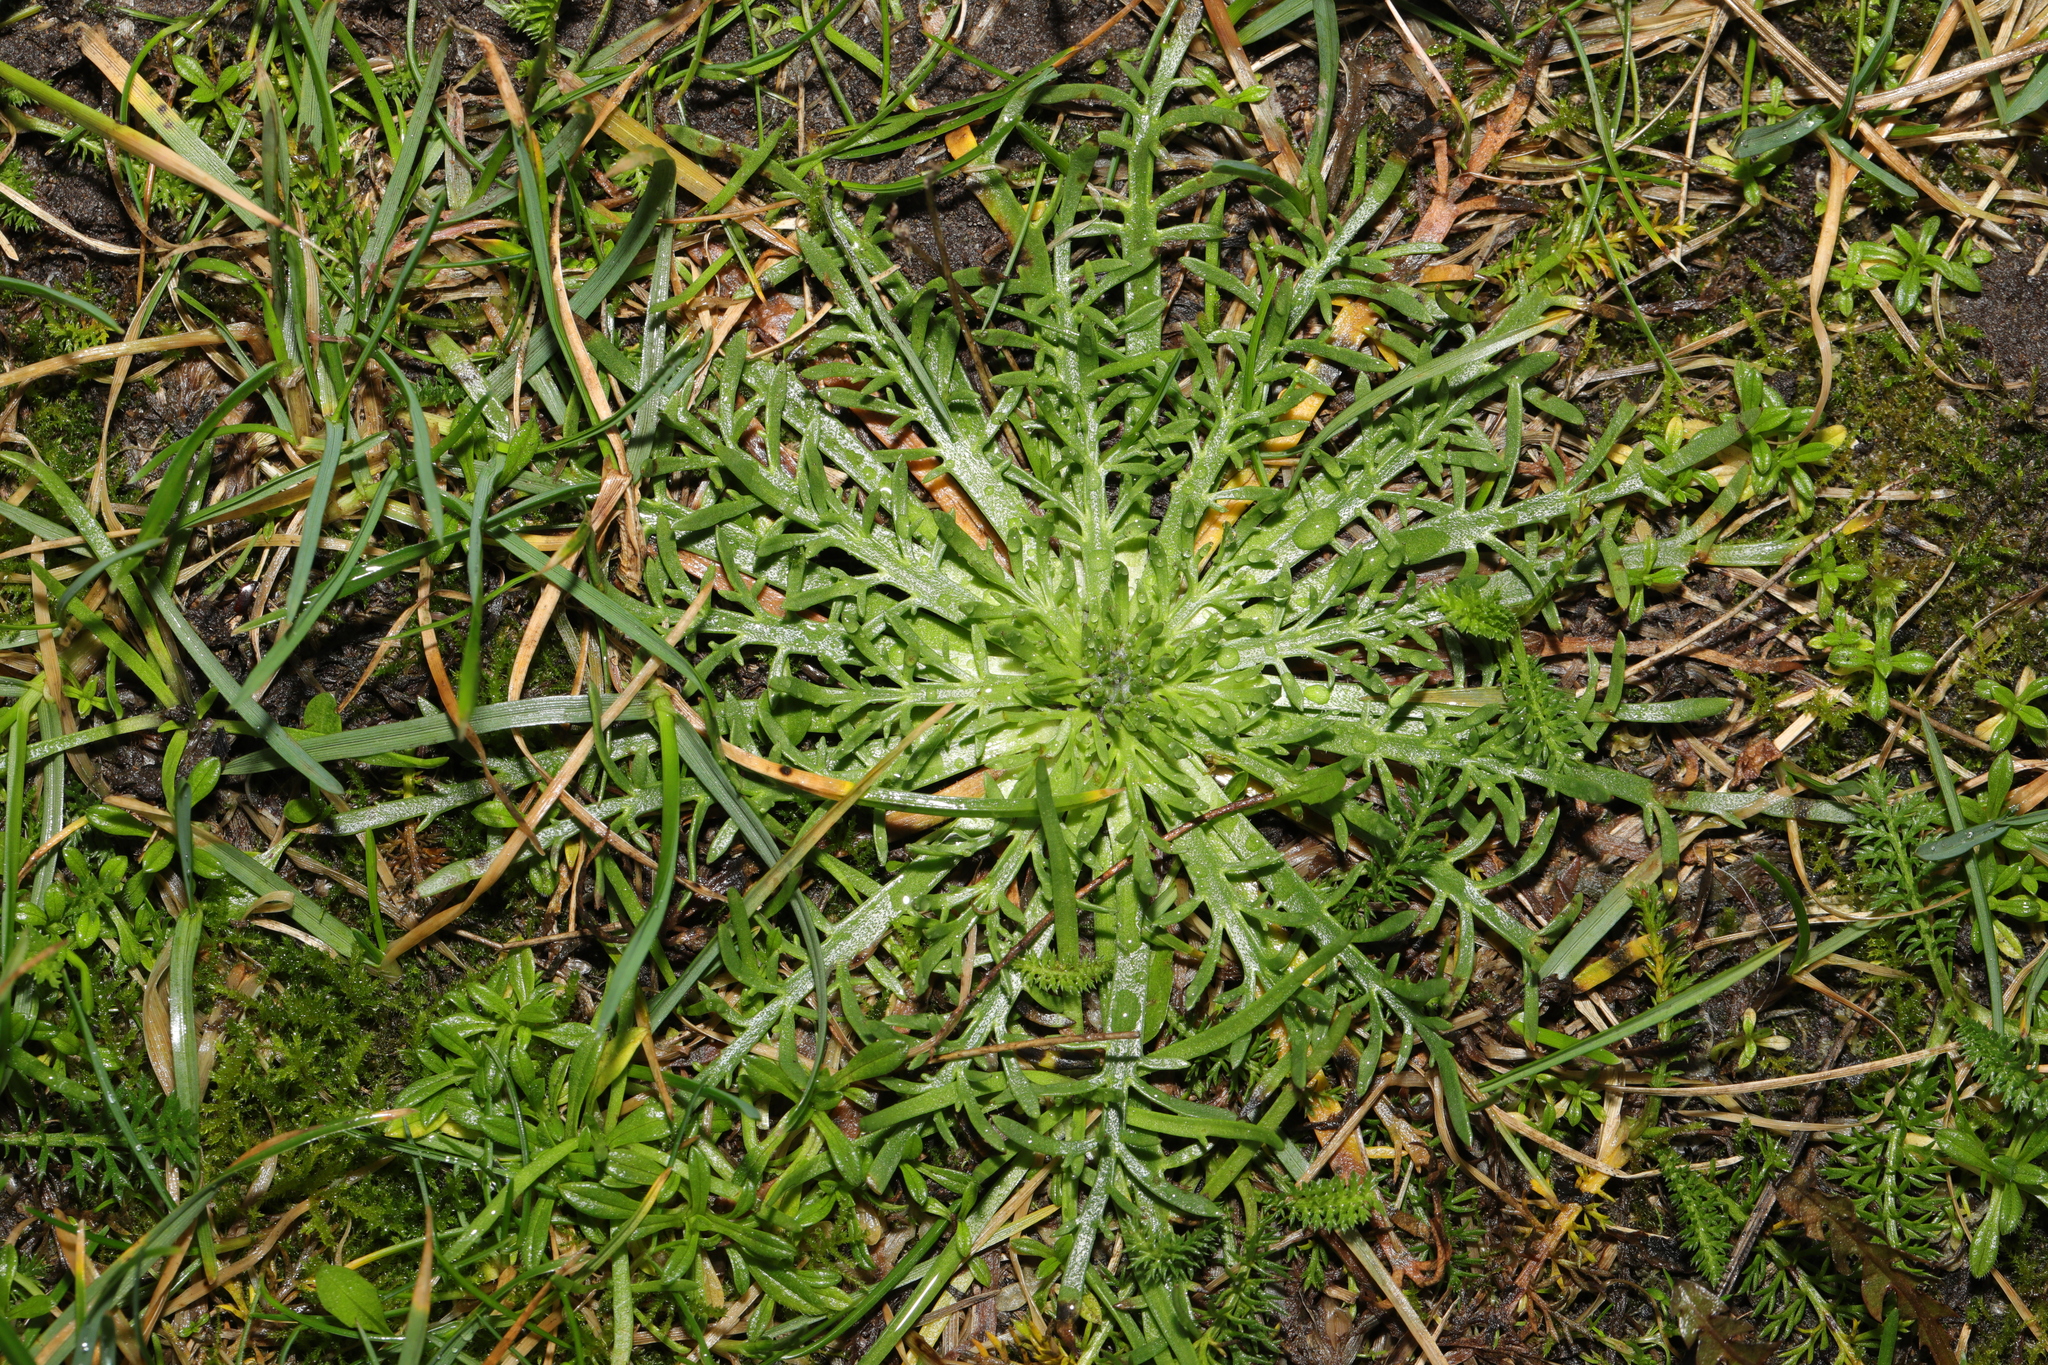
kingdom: Plantae
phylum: Tracheophyta
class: Magnoliopsida
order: Lamiales
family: Plantaginaceae
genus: Plantago
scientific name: Plantago coronopus
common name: Buck's-horn plantain
